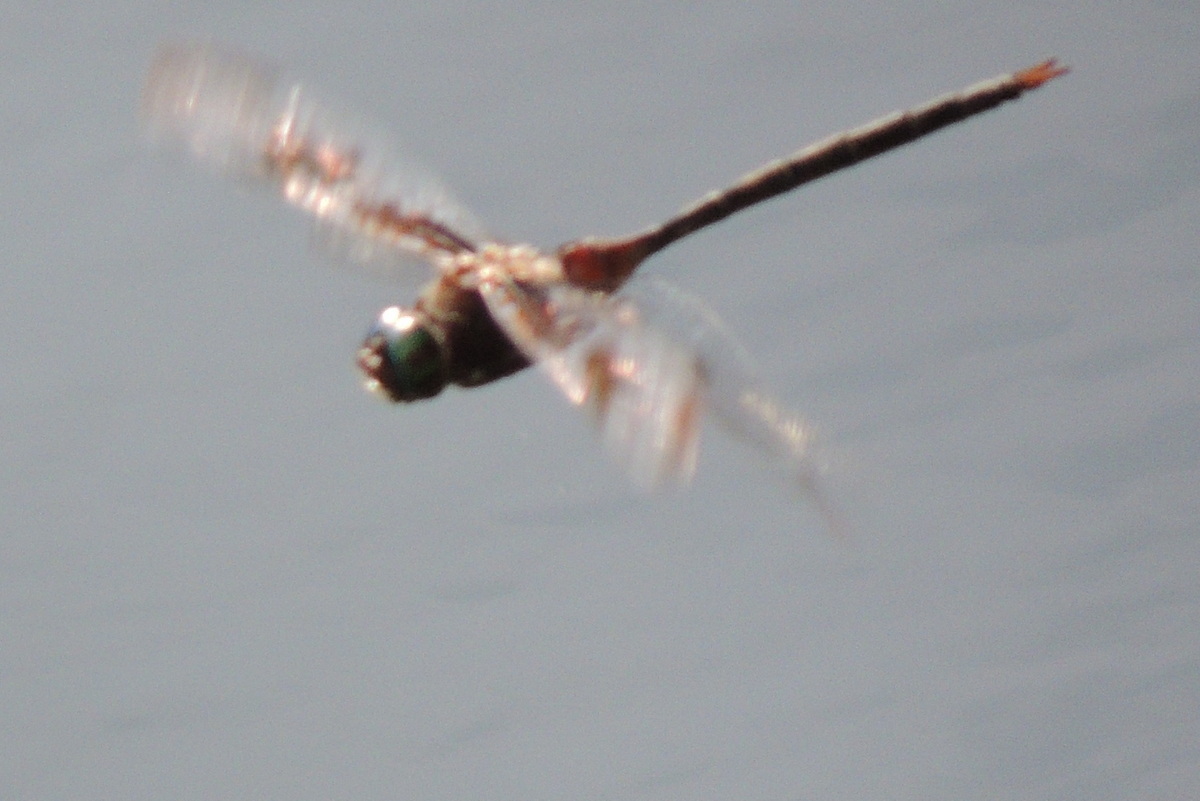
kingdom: Animalia
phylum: Arthropoda
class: Insecta
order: Odonata
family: Corduliidae
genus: Epitheca
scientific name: Epitheca princeps
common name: Prince baskettail
